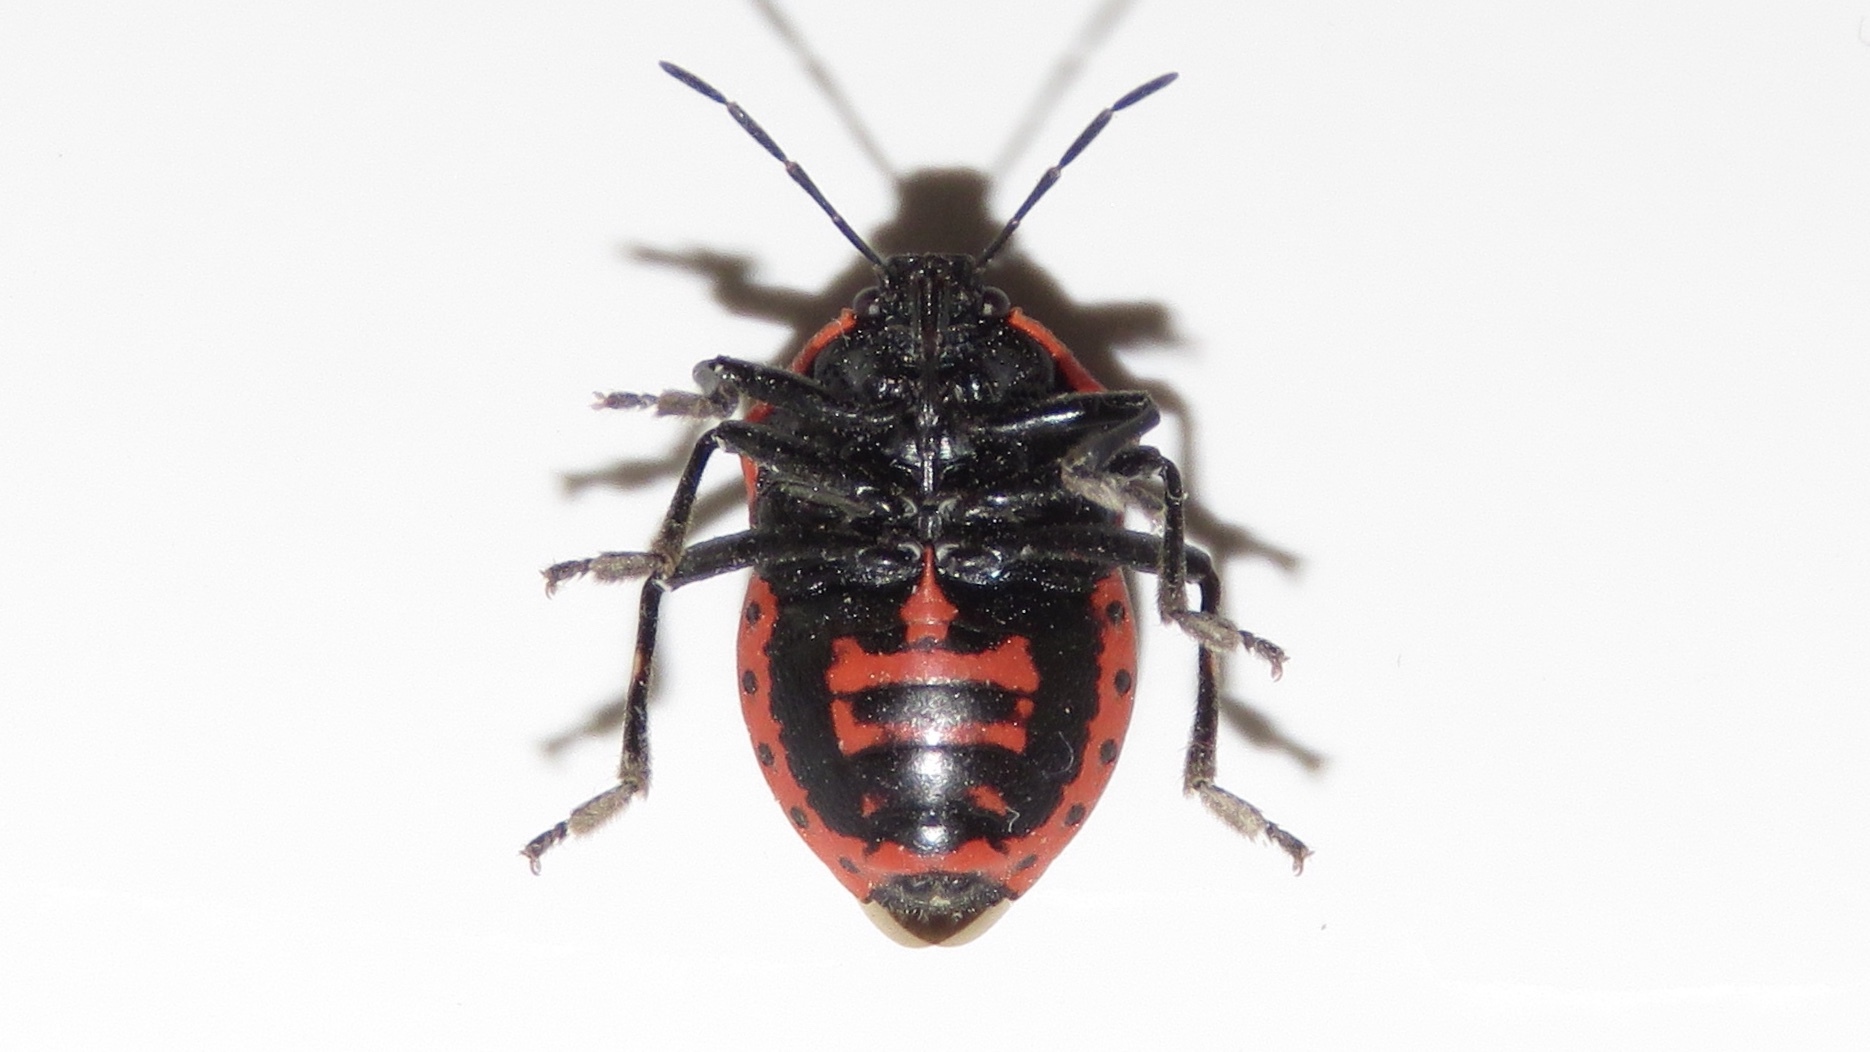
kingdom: Animalia
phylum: Arthropoda
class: Insecta
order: Hemiptera
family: Pentatomidae
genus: Perillus
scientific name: Perillus bioculatus
